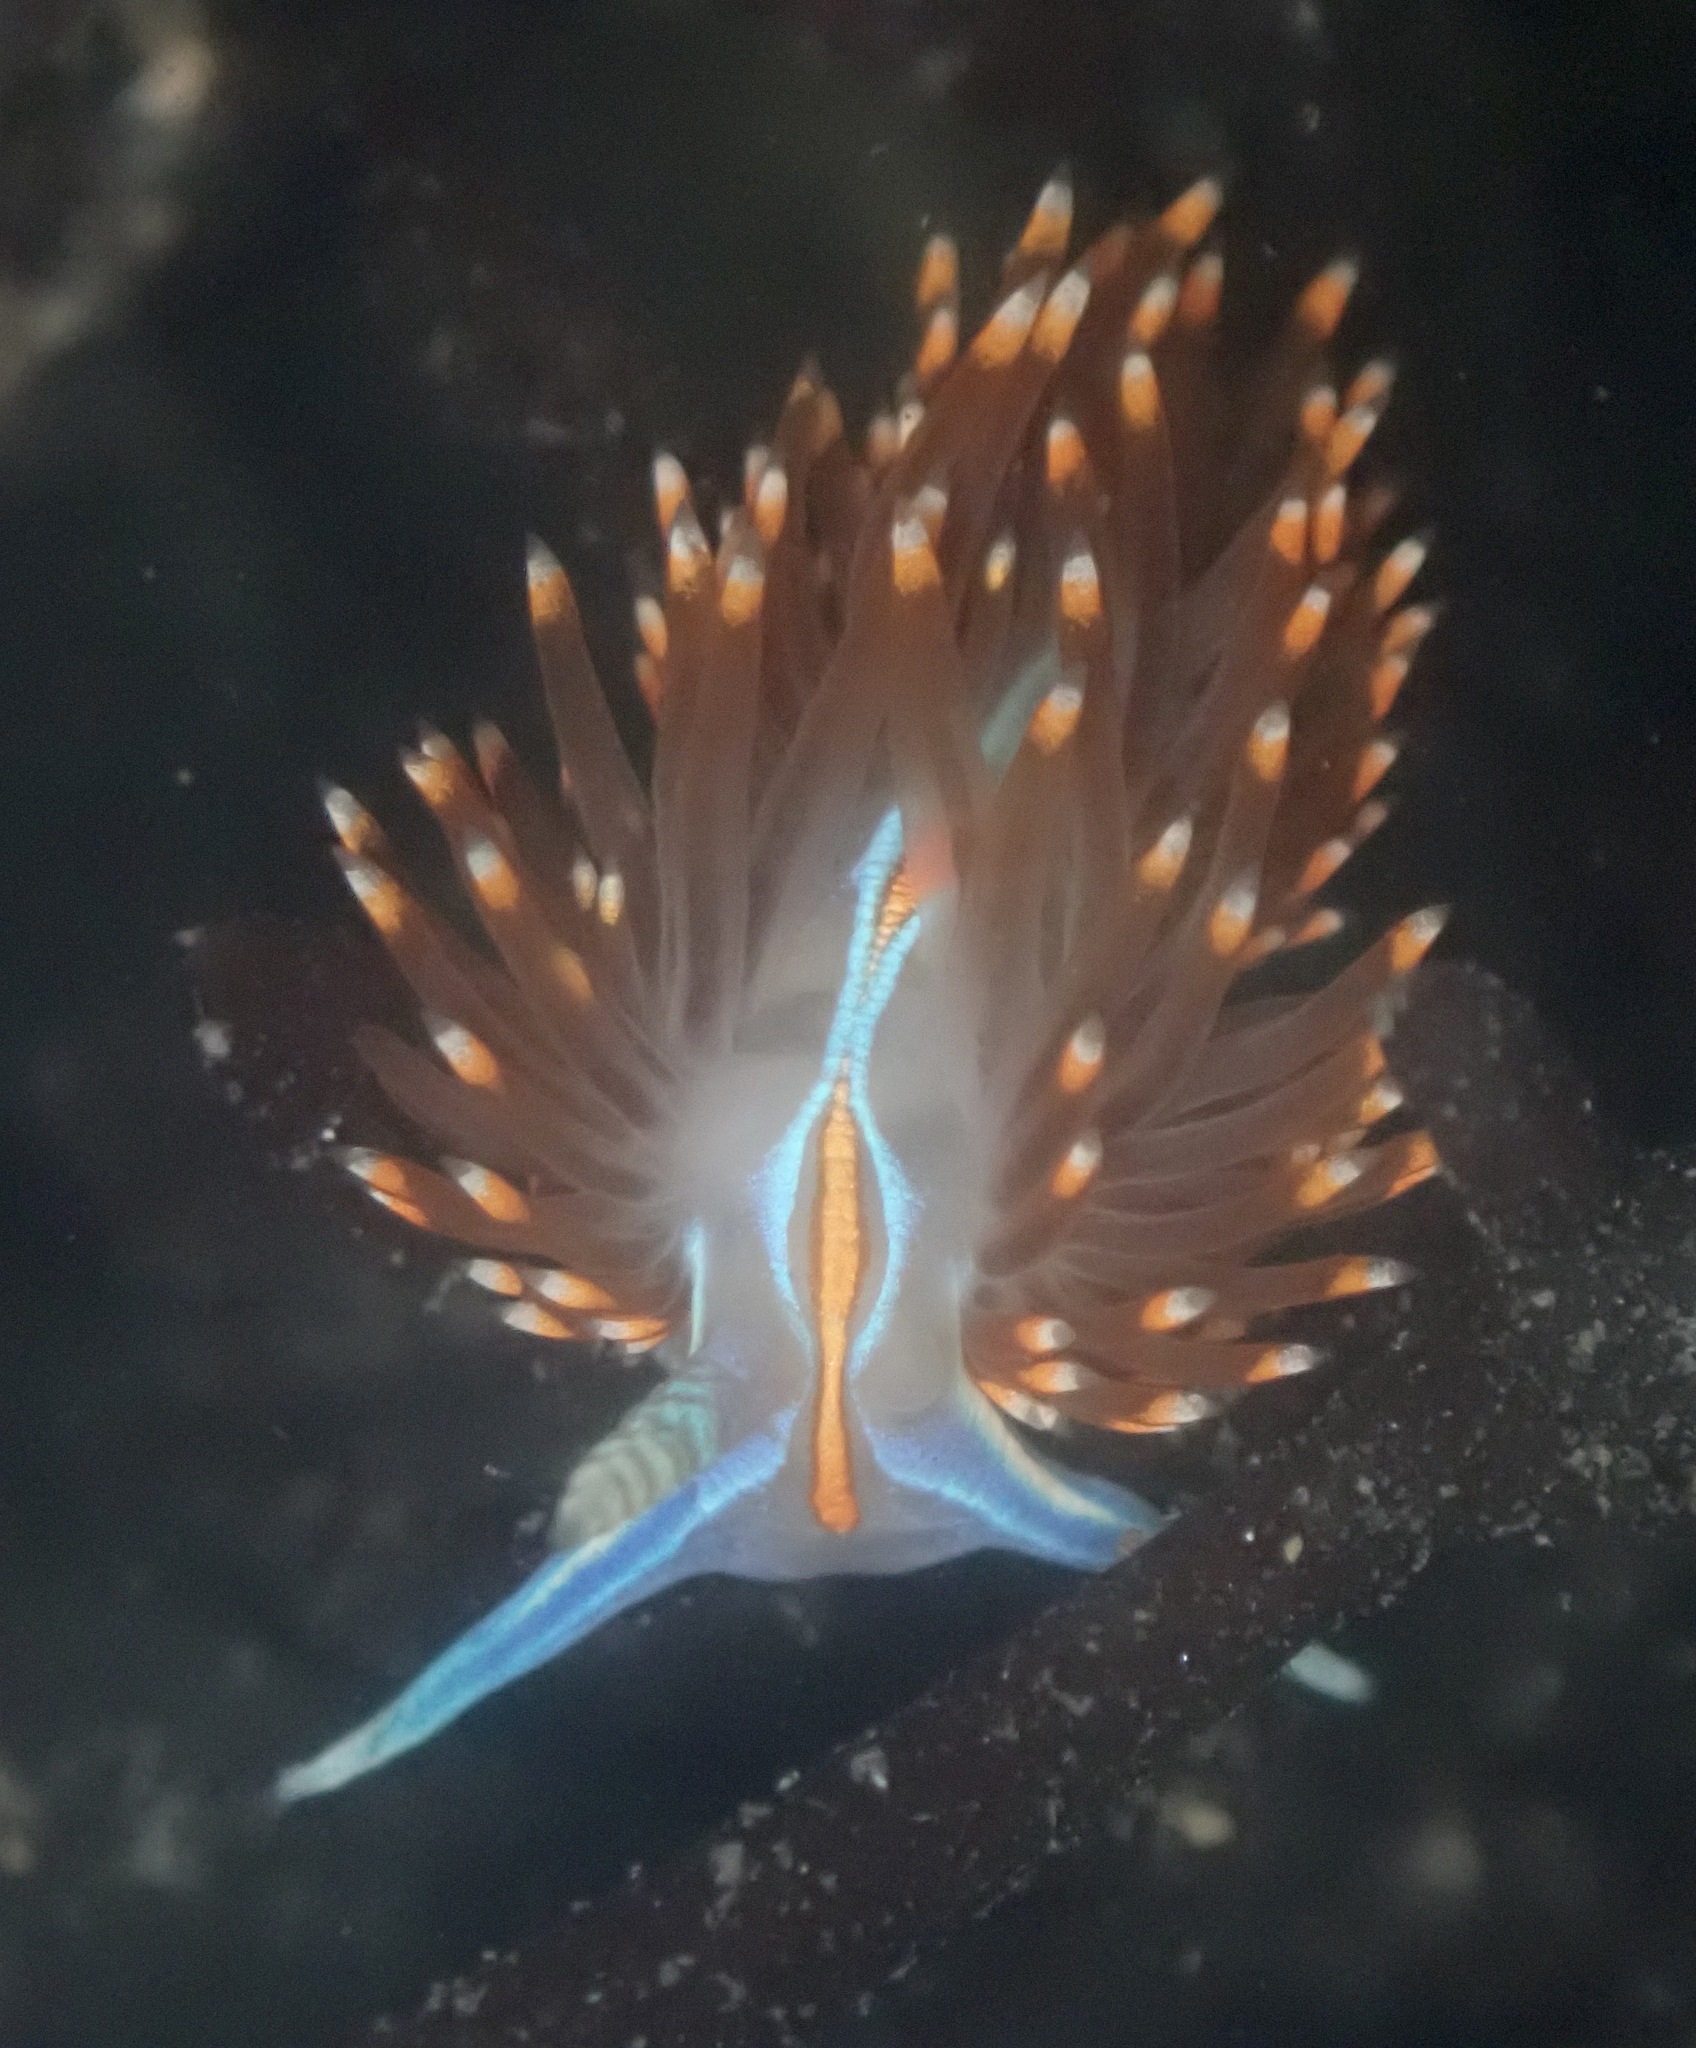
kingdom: Animalia
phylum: Mollusca
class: Gastropoda
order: Nudibranchia
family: Myrrhinidae
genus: Hermissenda
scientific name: Hermissenda opalescens
